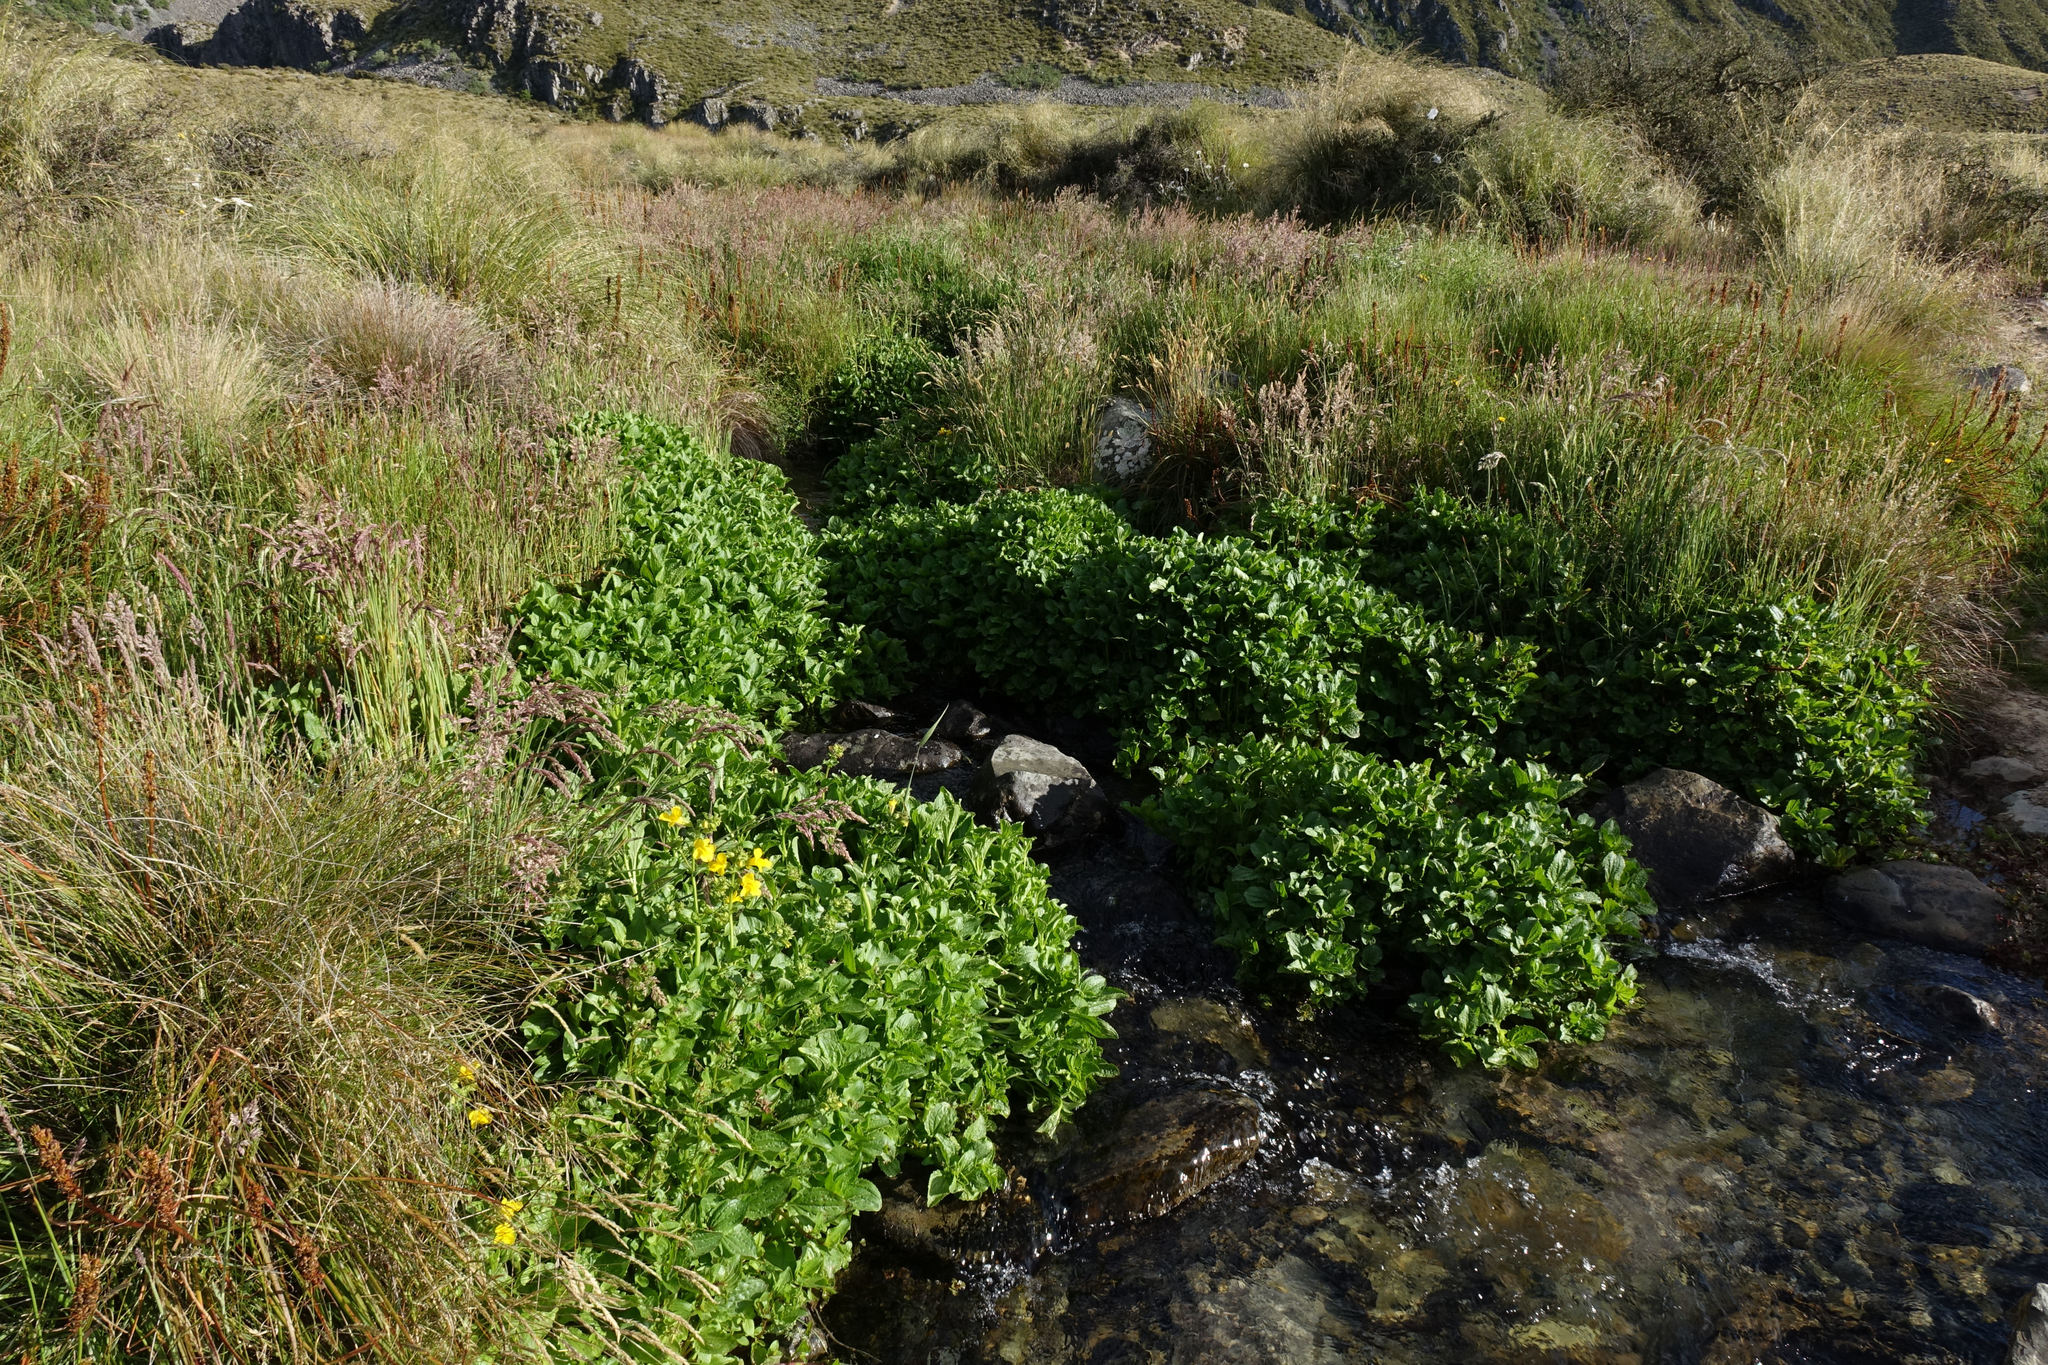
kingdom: Plantae
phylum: Tracheophyta
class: Magnoliopsida
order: Lamiales
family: Phrymaceae
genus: Erythranthe
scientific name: Erythranthe guttata
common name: Monkeyflower
